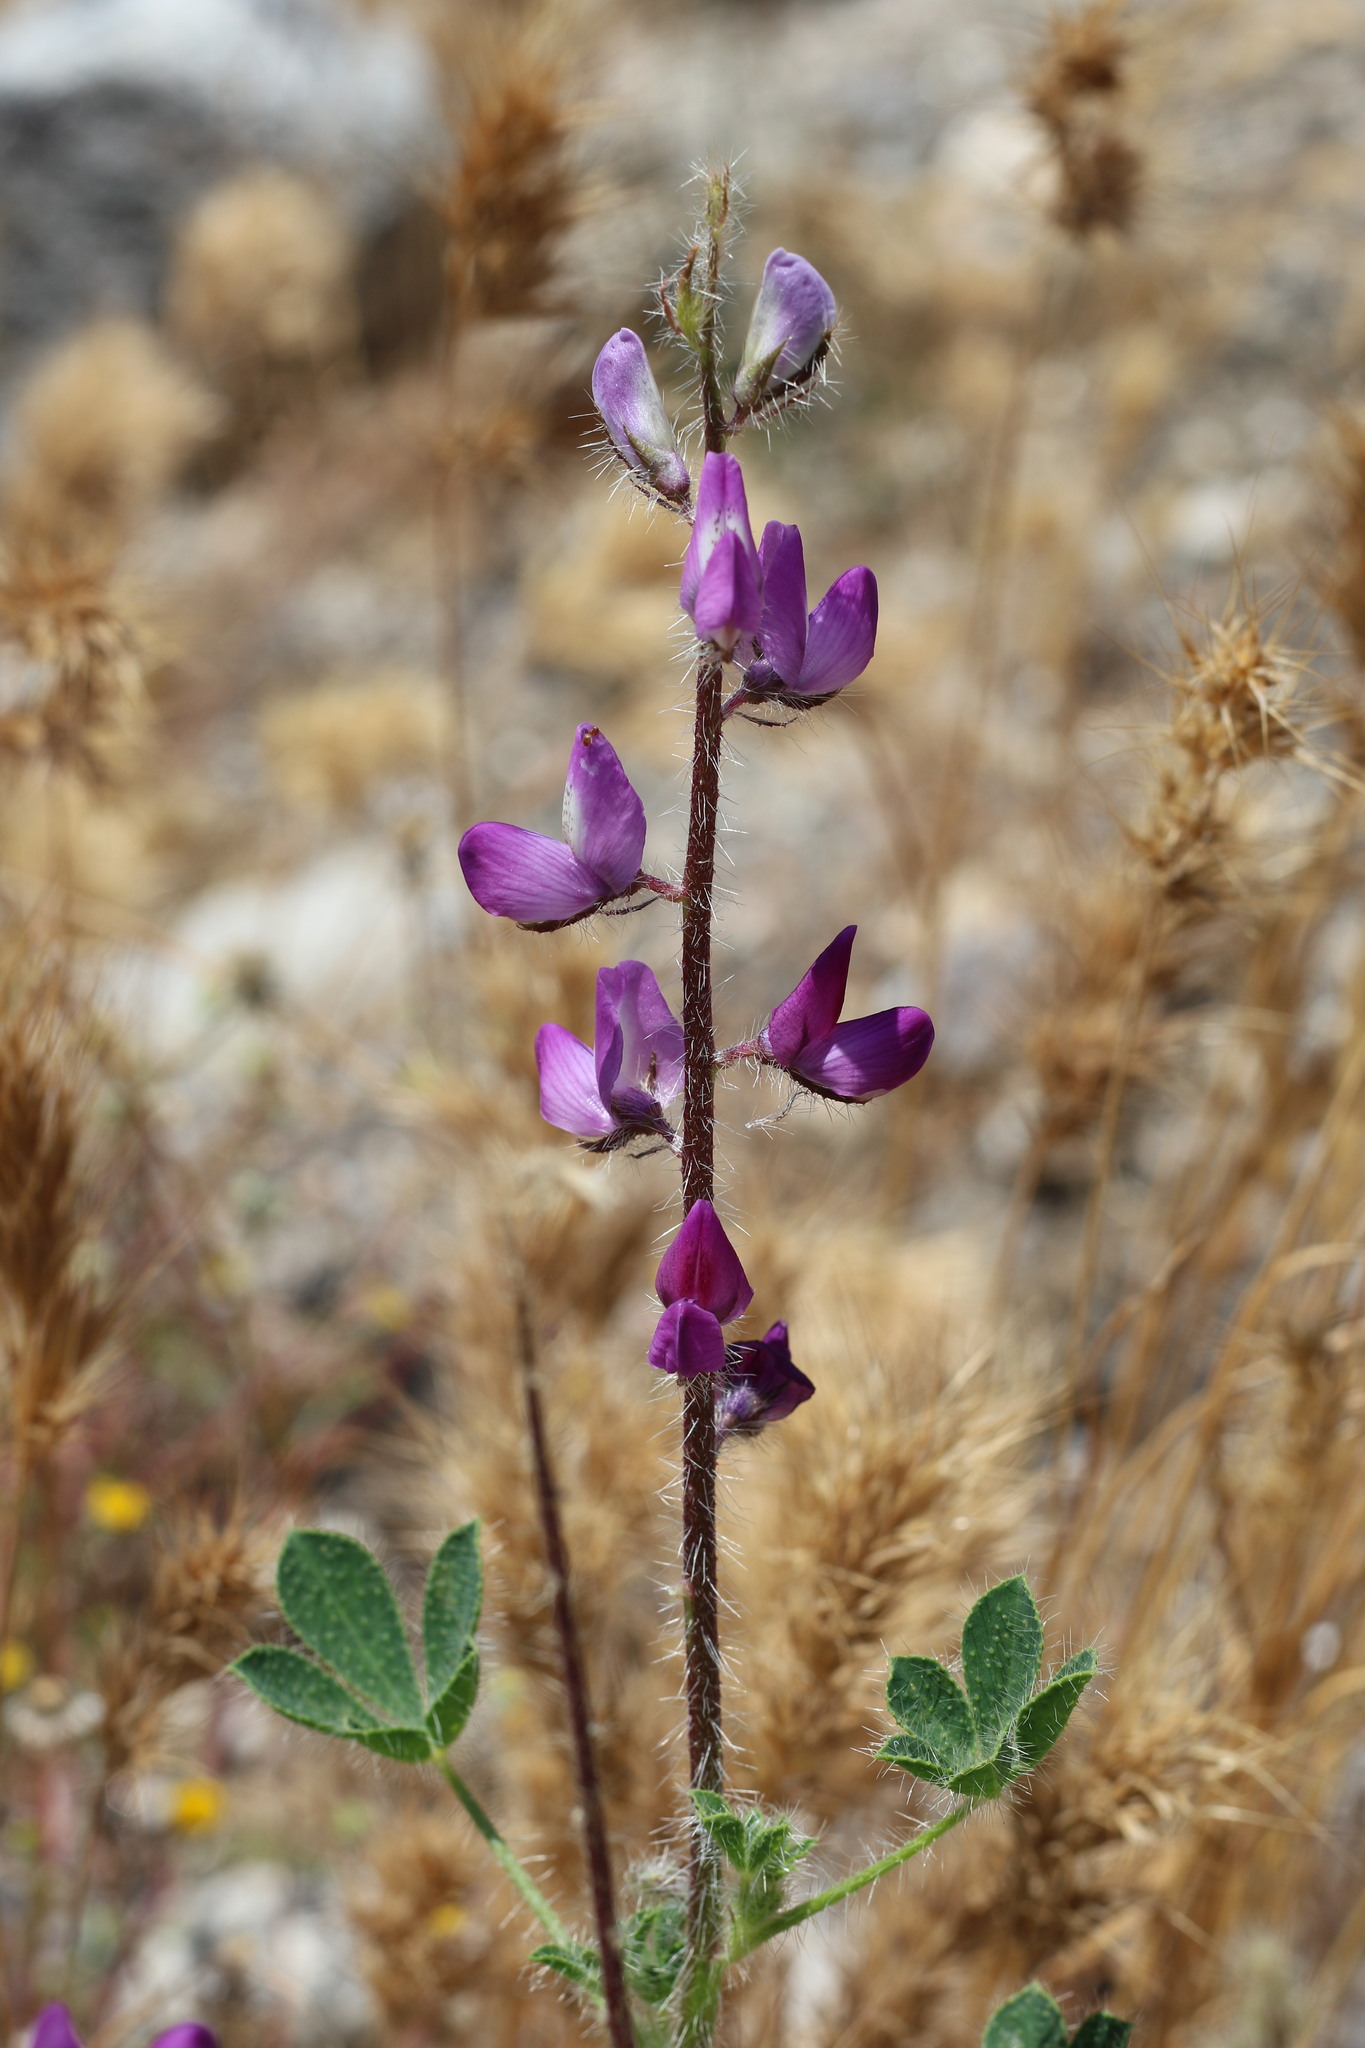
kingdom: Plantae
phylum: Tracheophyta
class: Magnoliopsida
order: Fabales
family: Fabaceae
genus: Lupinus
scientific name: Lupinus hirsutissimus
